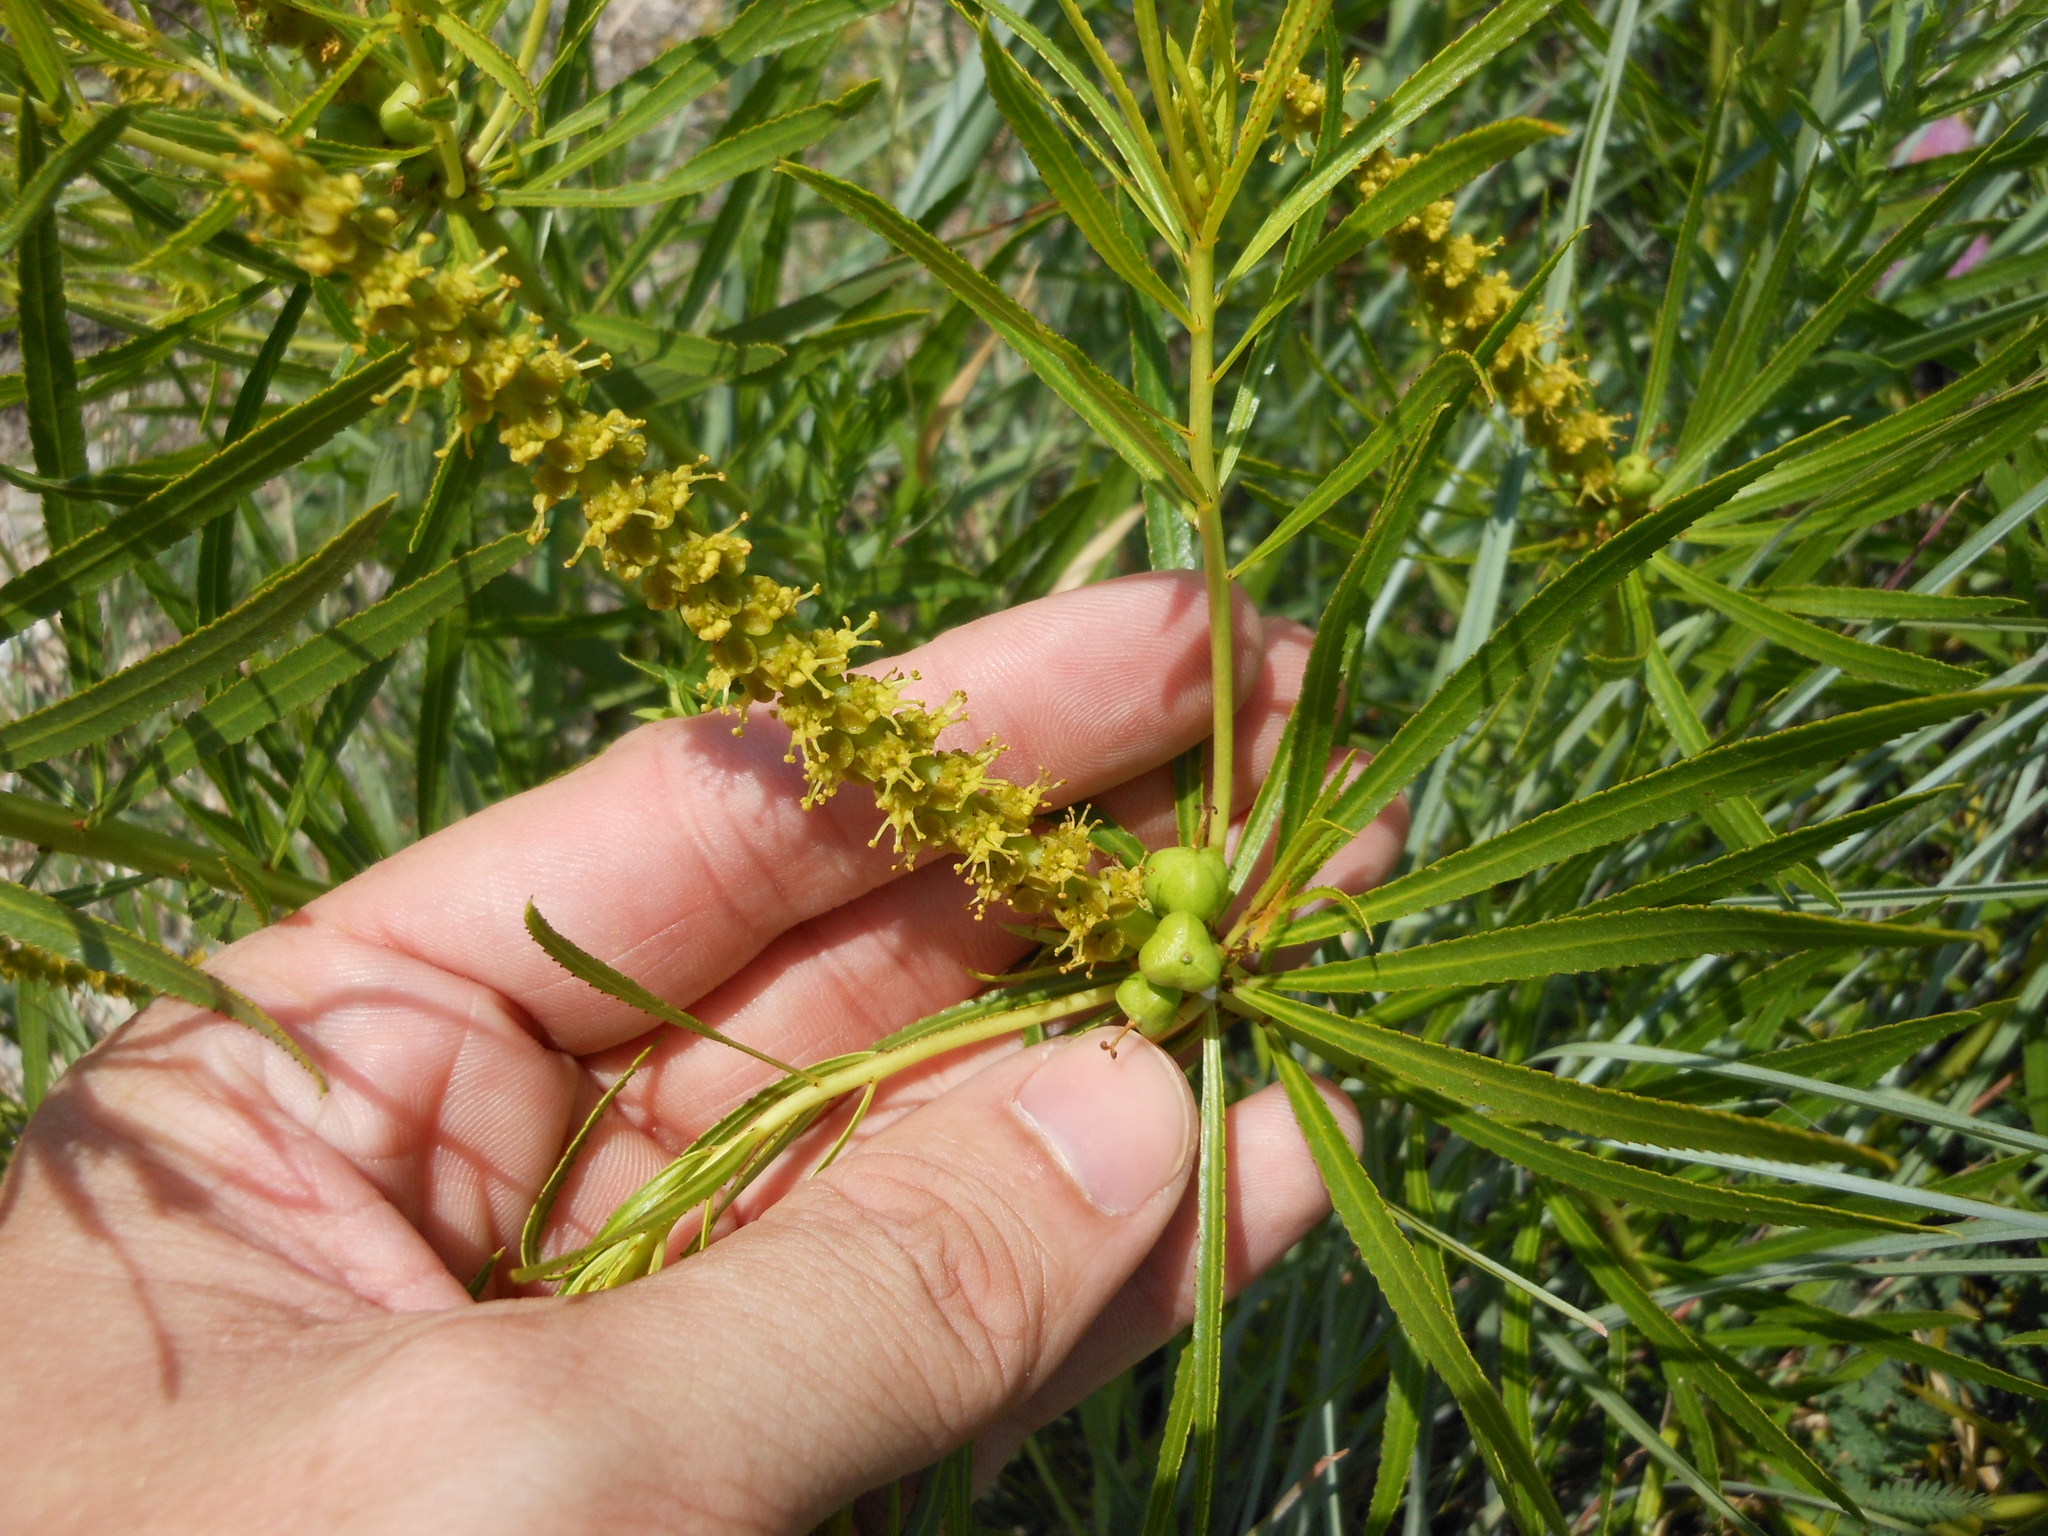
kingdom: Plantae
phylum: Tracheophyta
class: Magnoliopsida
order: Malpighiales
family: Euphorbiaceae
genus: Stillingia
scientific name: Stillingia texana
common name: Texas stillingia
